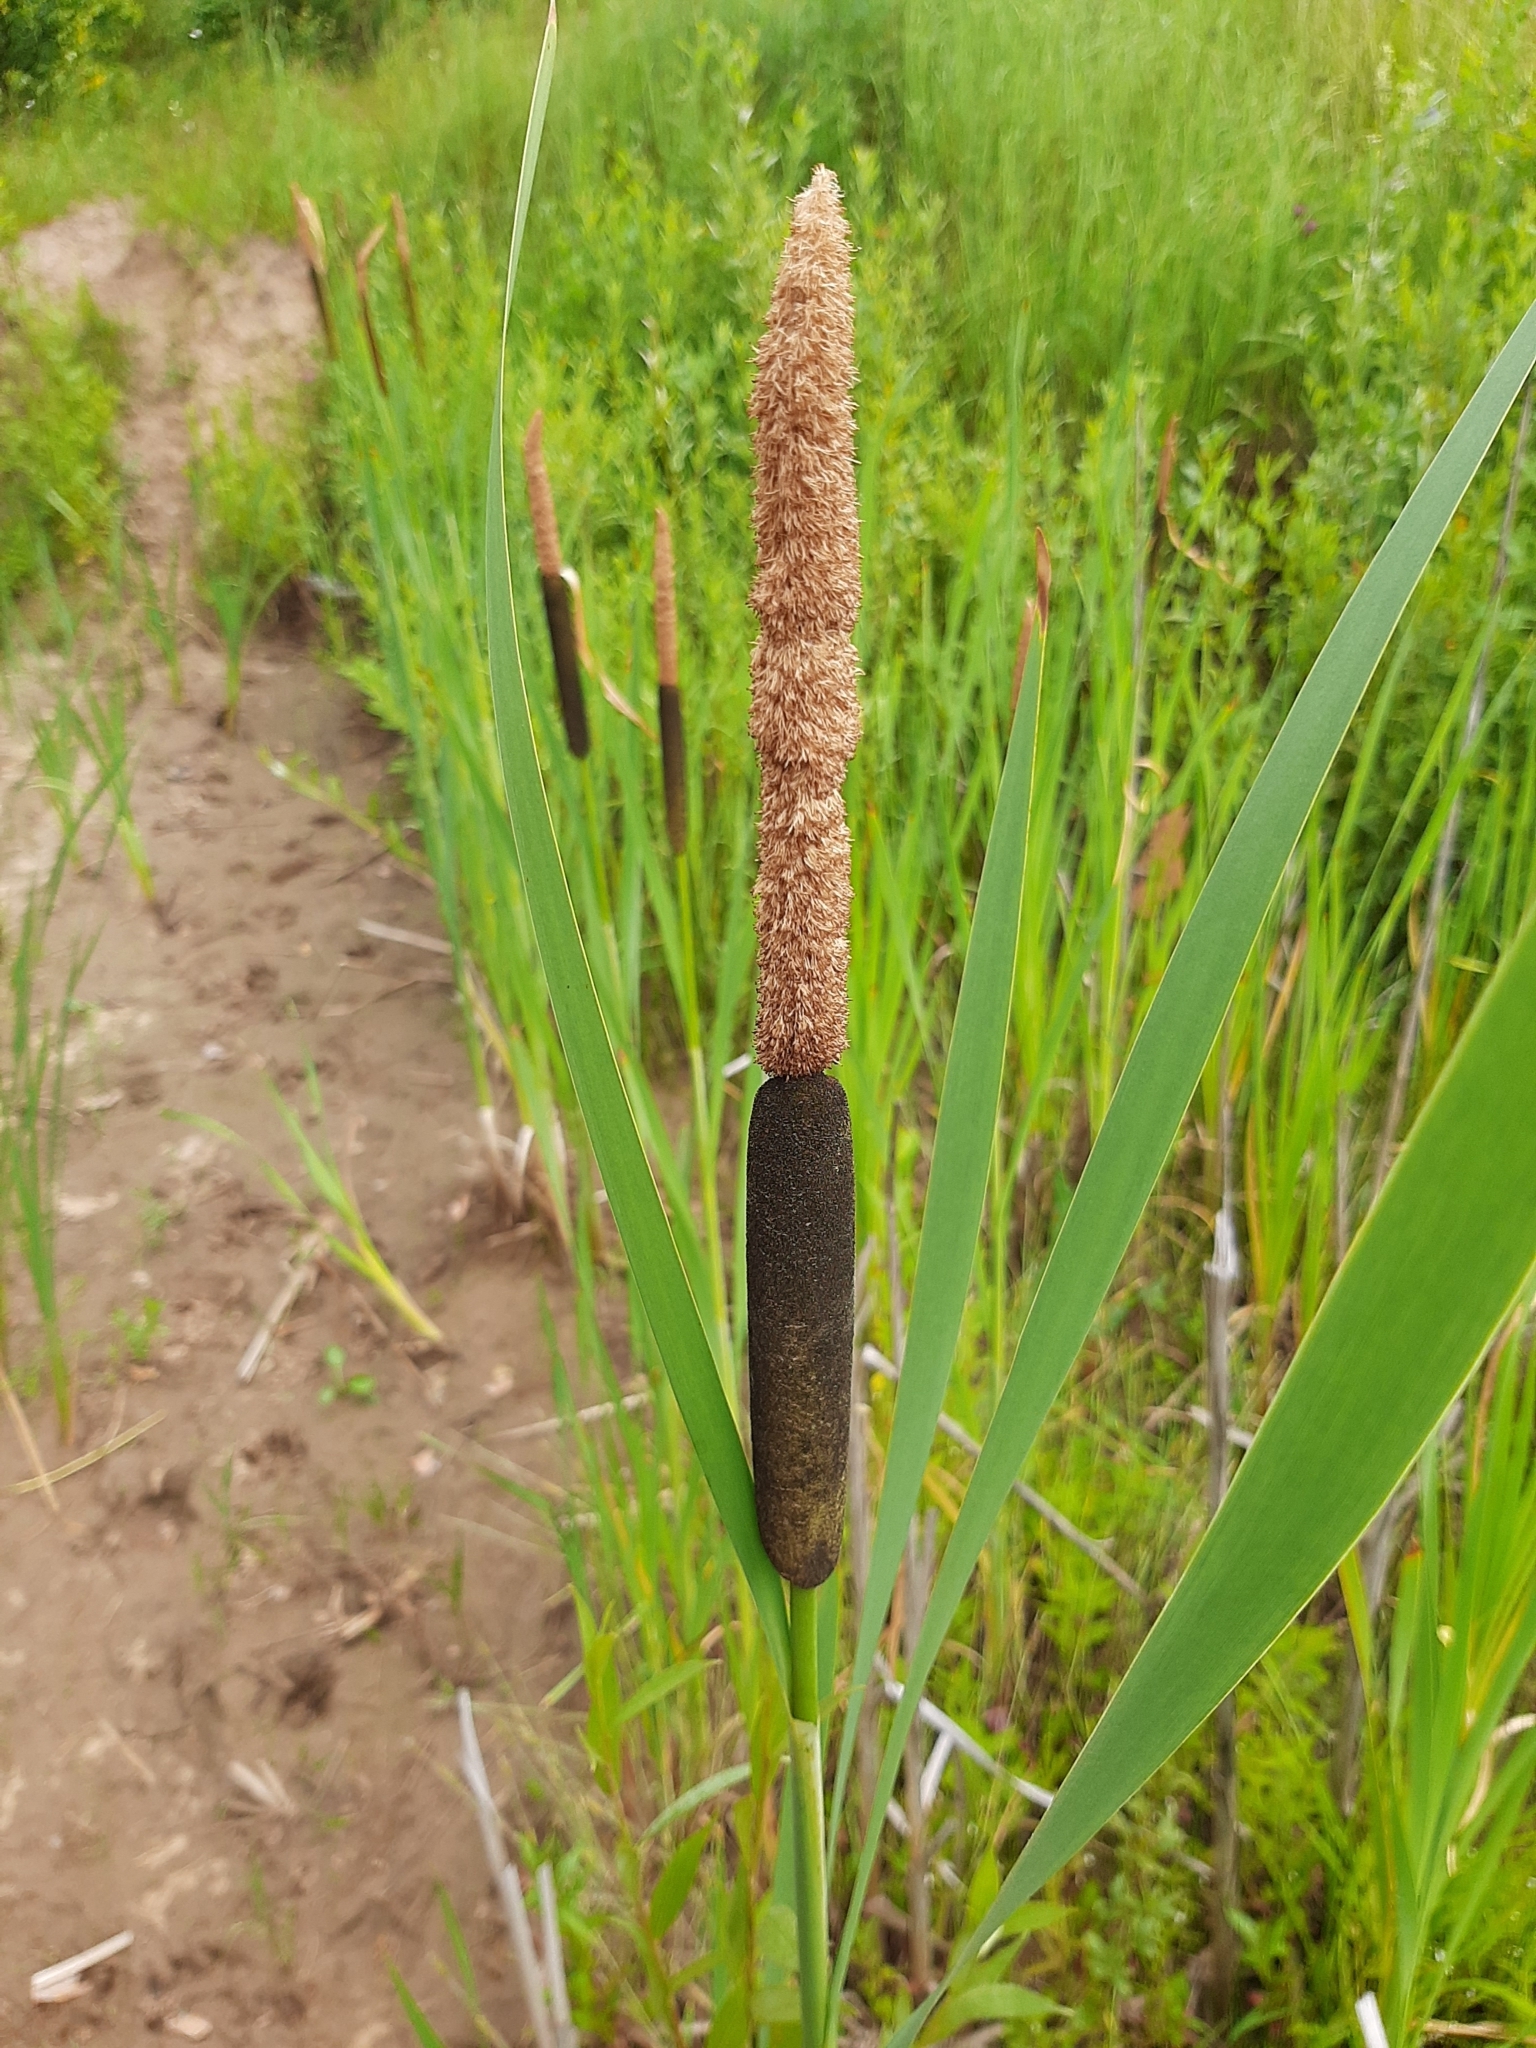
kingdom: Plantae
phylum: Tracheophyta
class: Liliopsida
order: Poales
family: Typhaceae
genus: Typha
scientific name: Typha latifolia
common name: Broadleaf cattail
